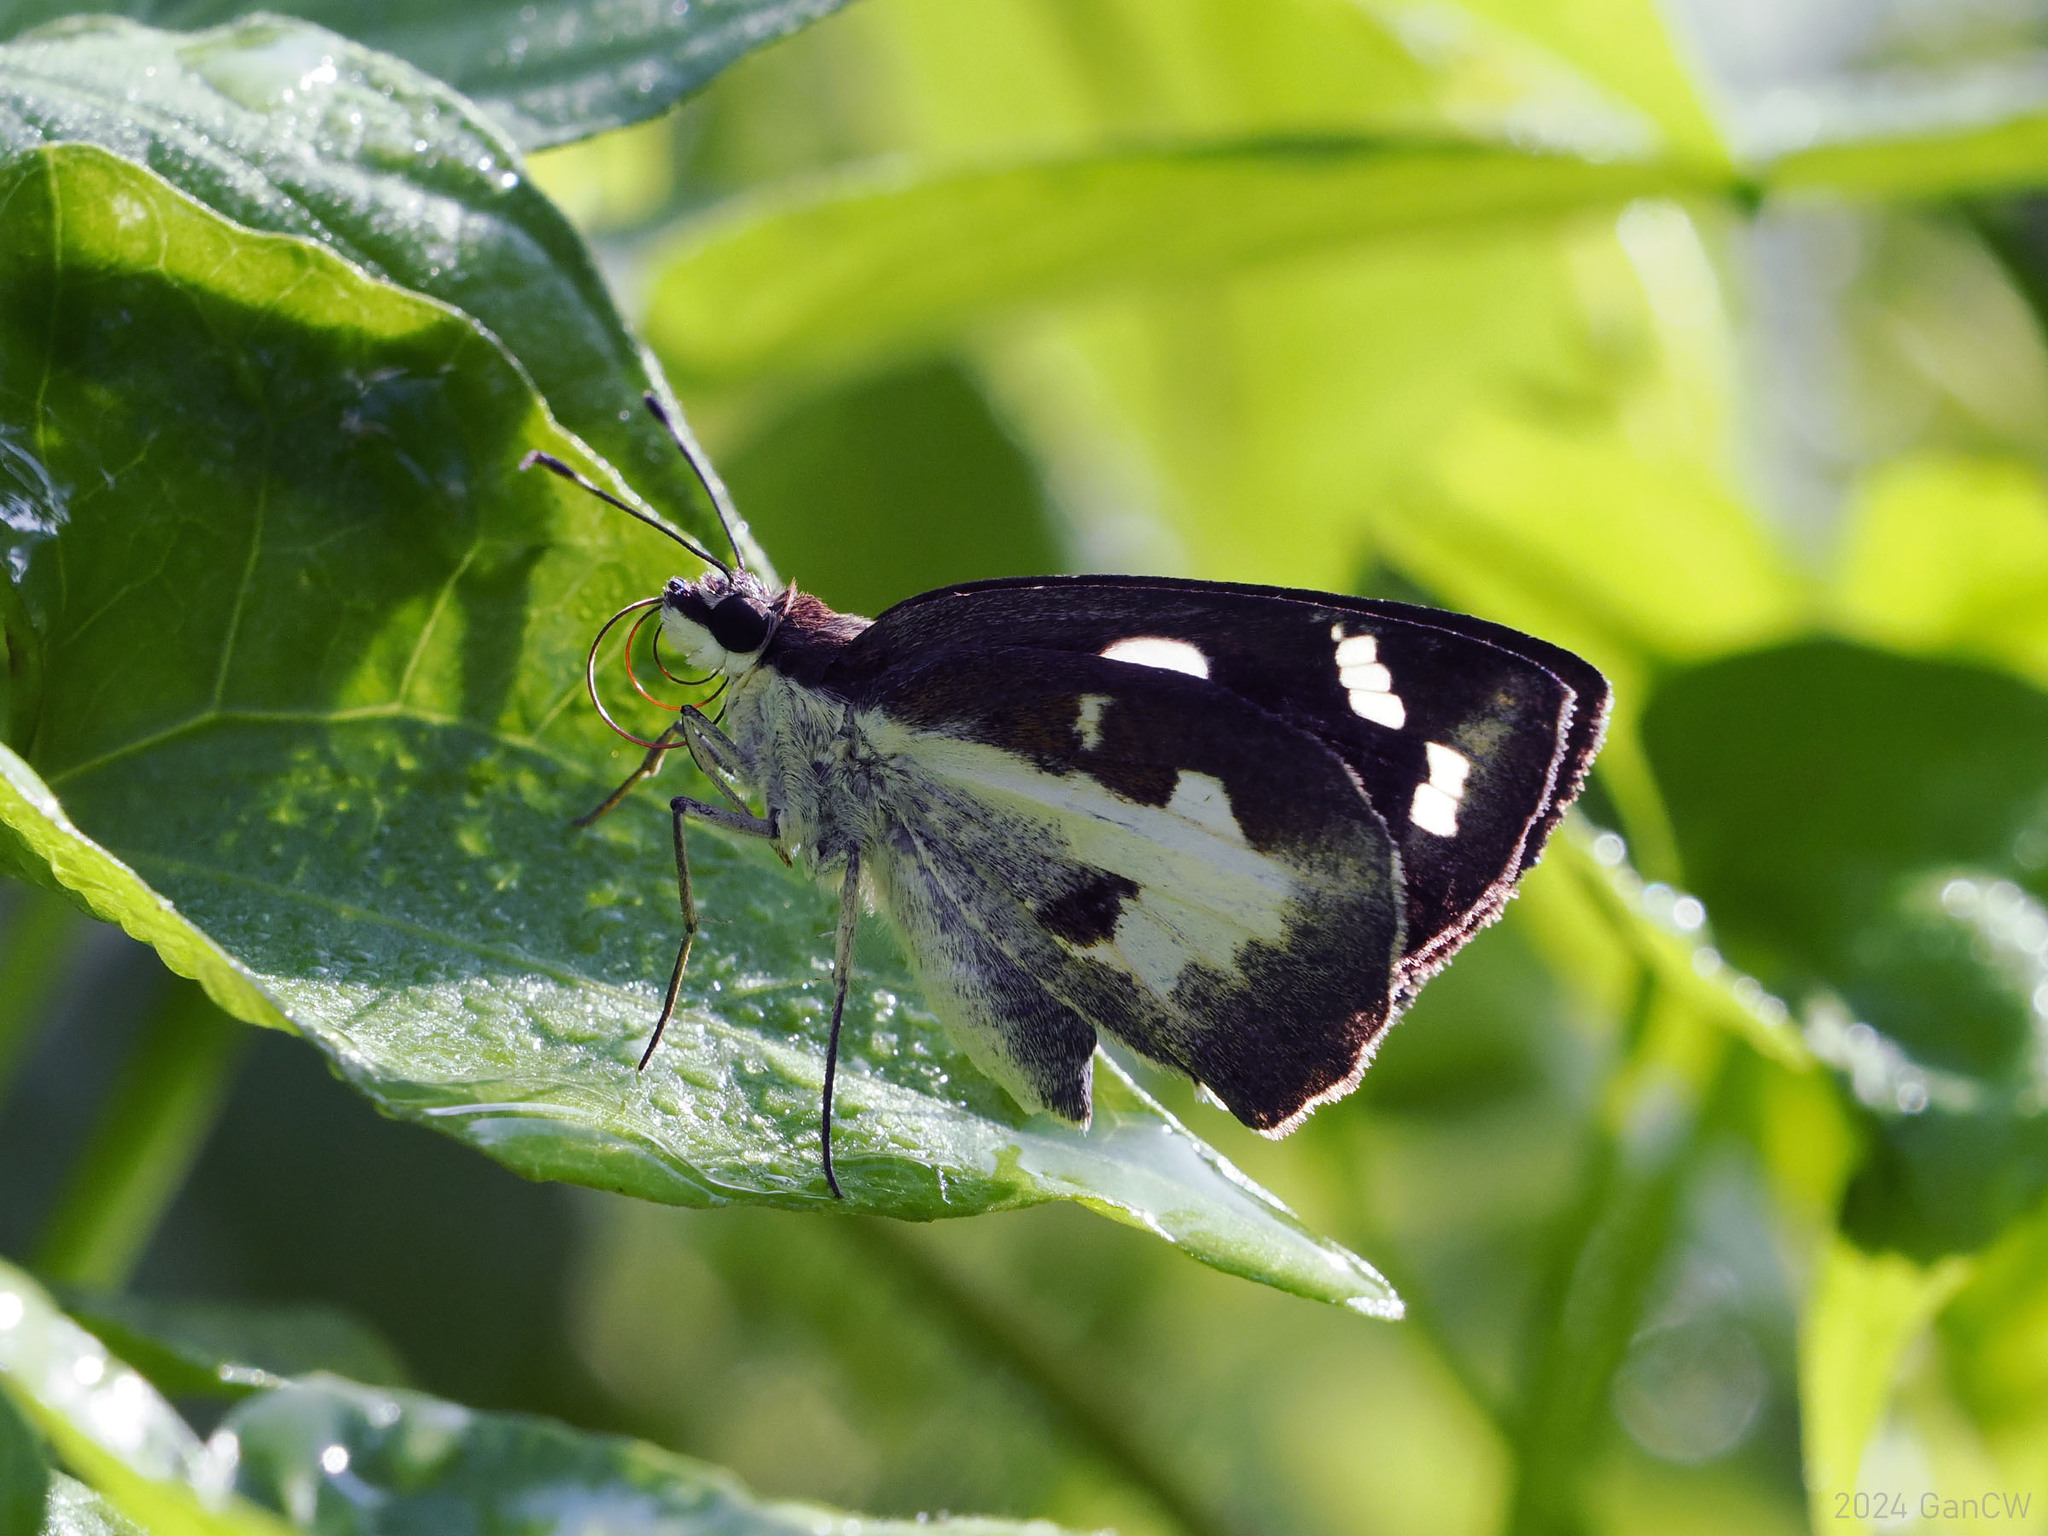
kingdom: Animalia
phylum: Arthropoda
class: Insecta
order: Lepidoptera
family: Hesperiidae
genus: Udaspes
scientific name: Udaspes folus
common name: Grass demon
